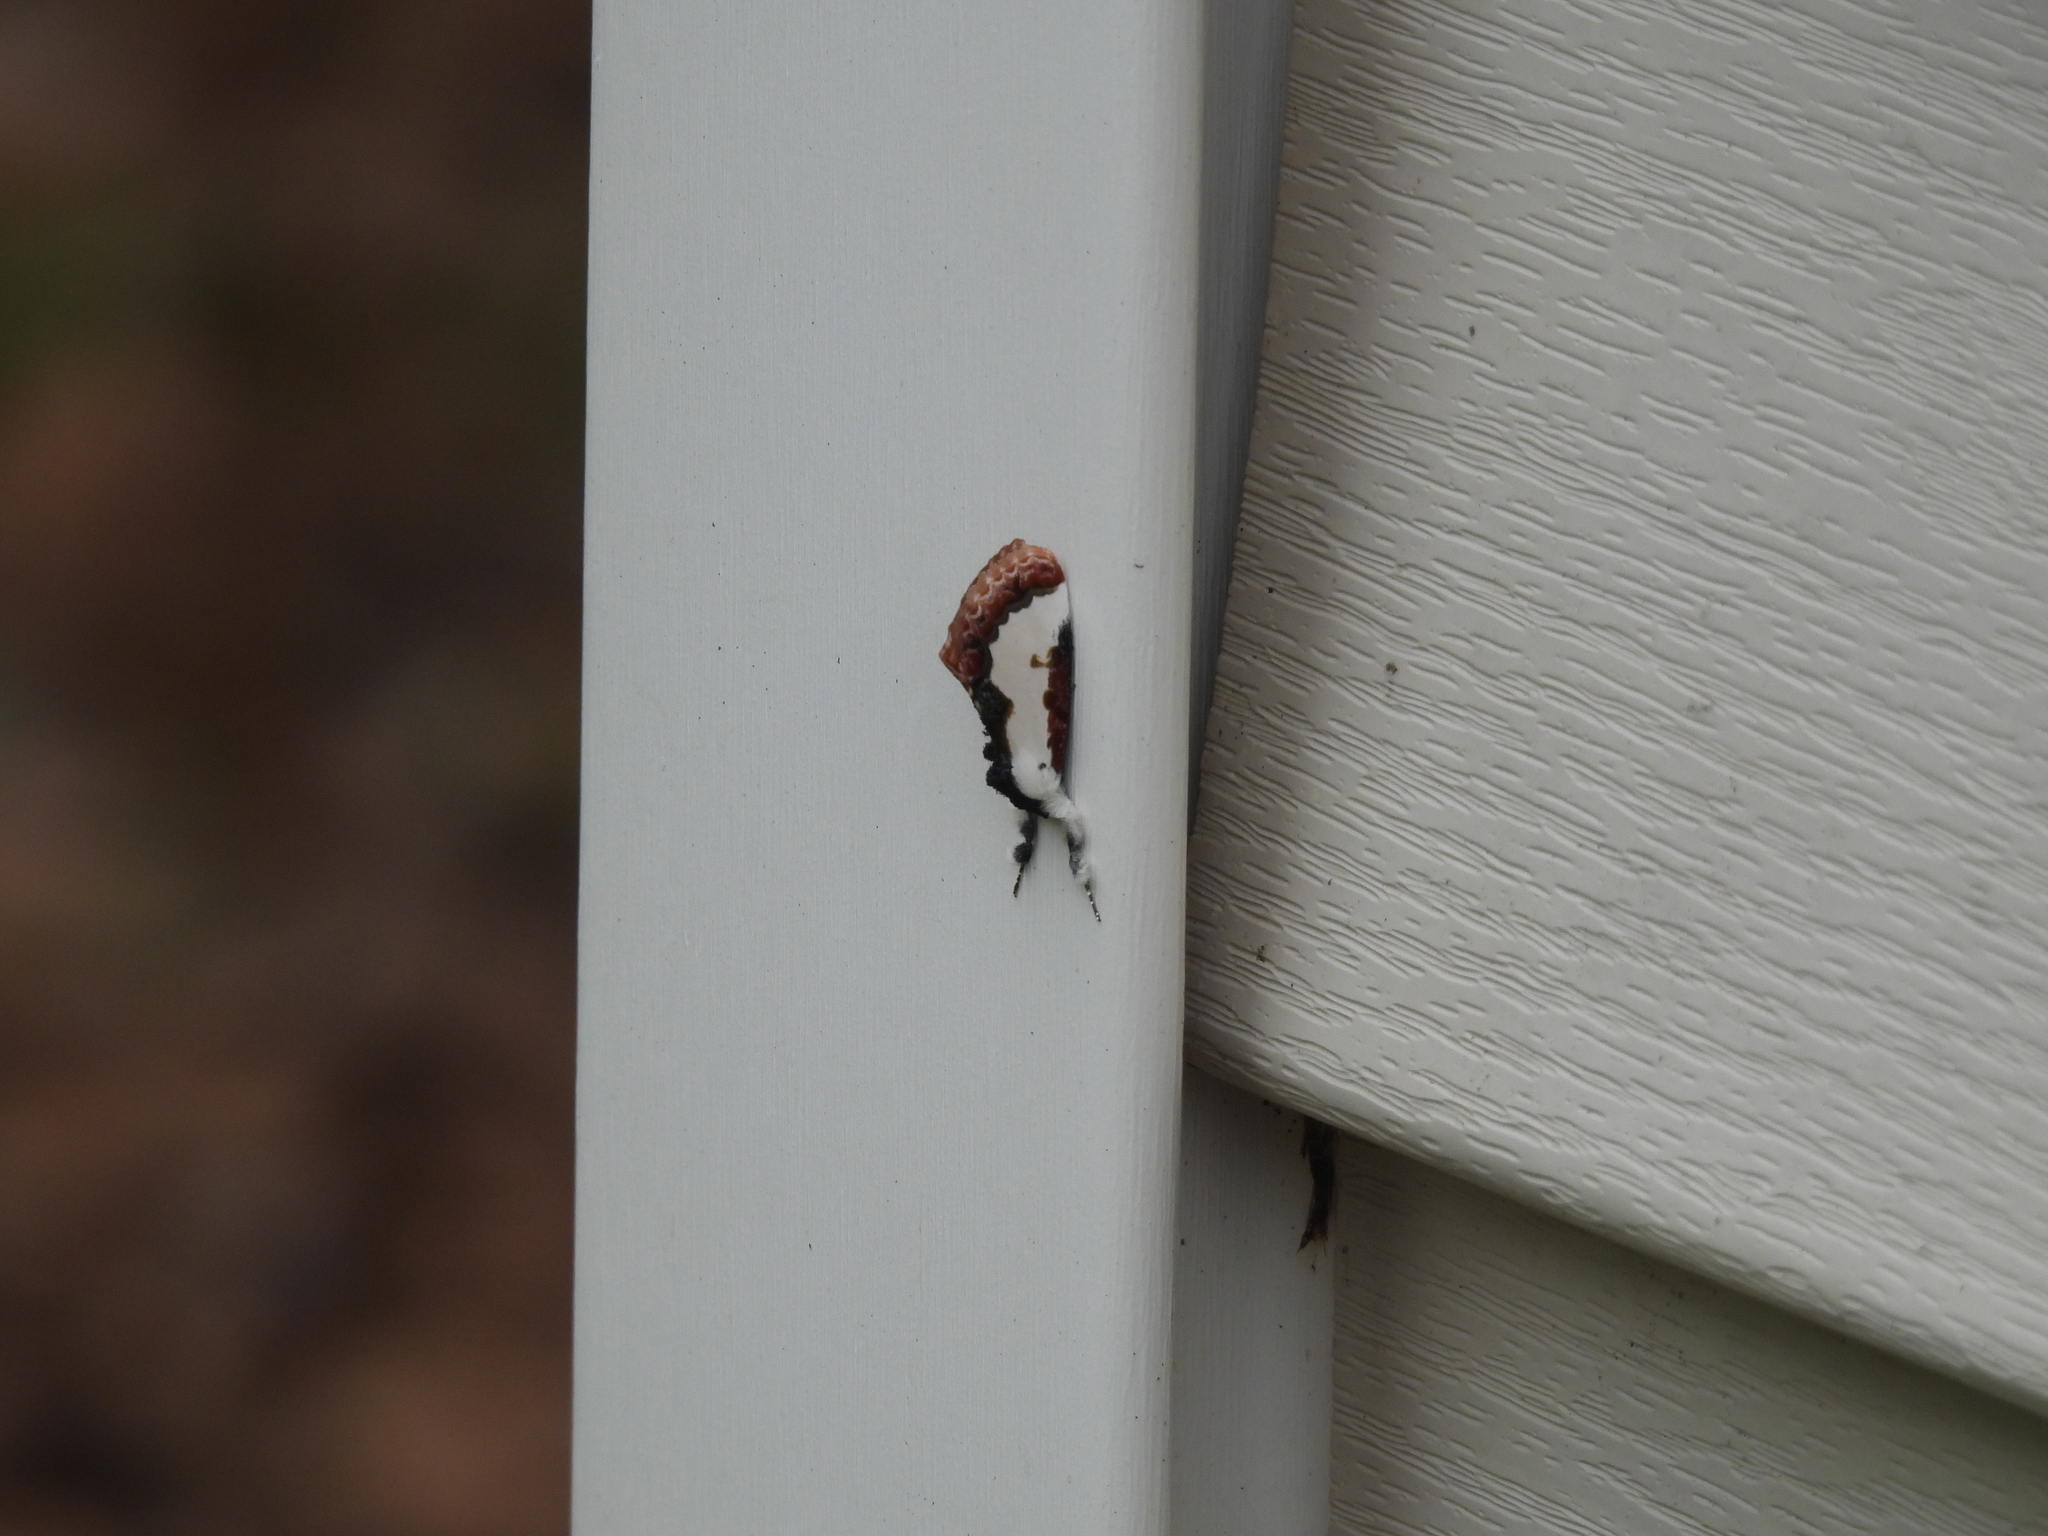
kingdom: Animalia
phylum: Arthropoda
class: Insecta
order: Lepidoptera
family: Noctuidae
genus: Eudryas
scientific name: Eudryas unio
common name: Pearly wood-nymph
